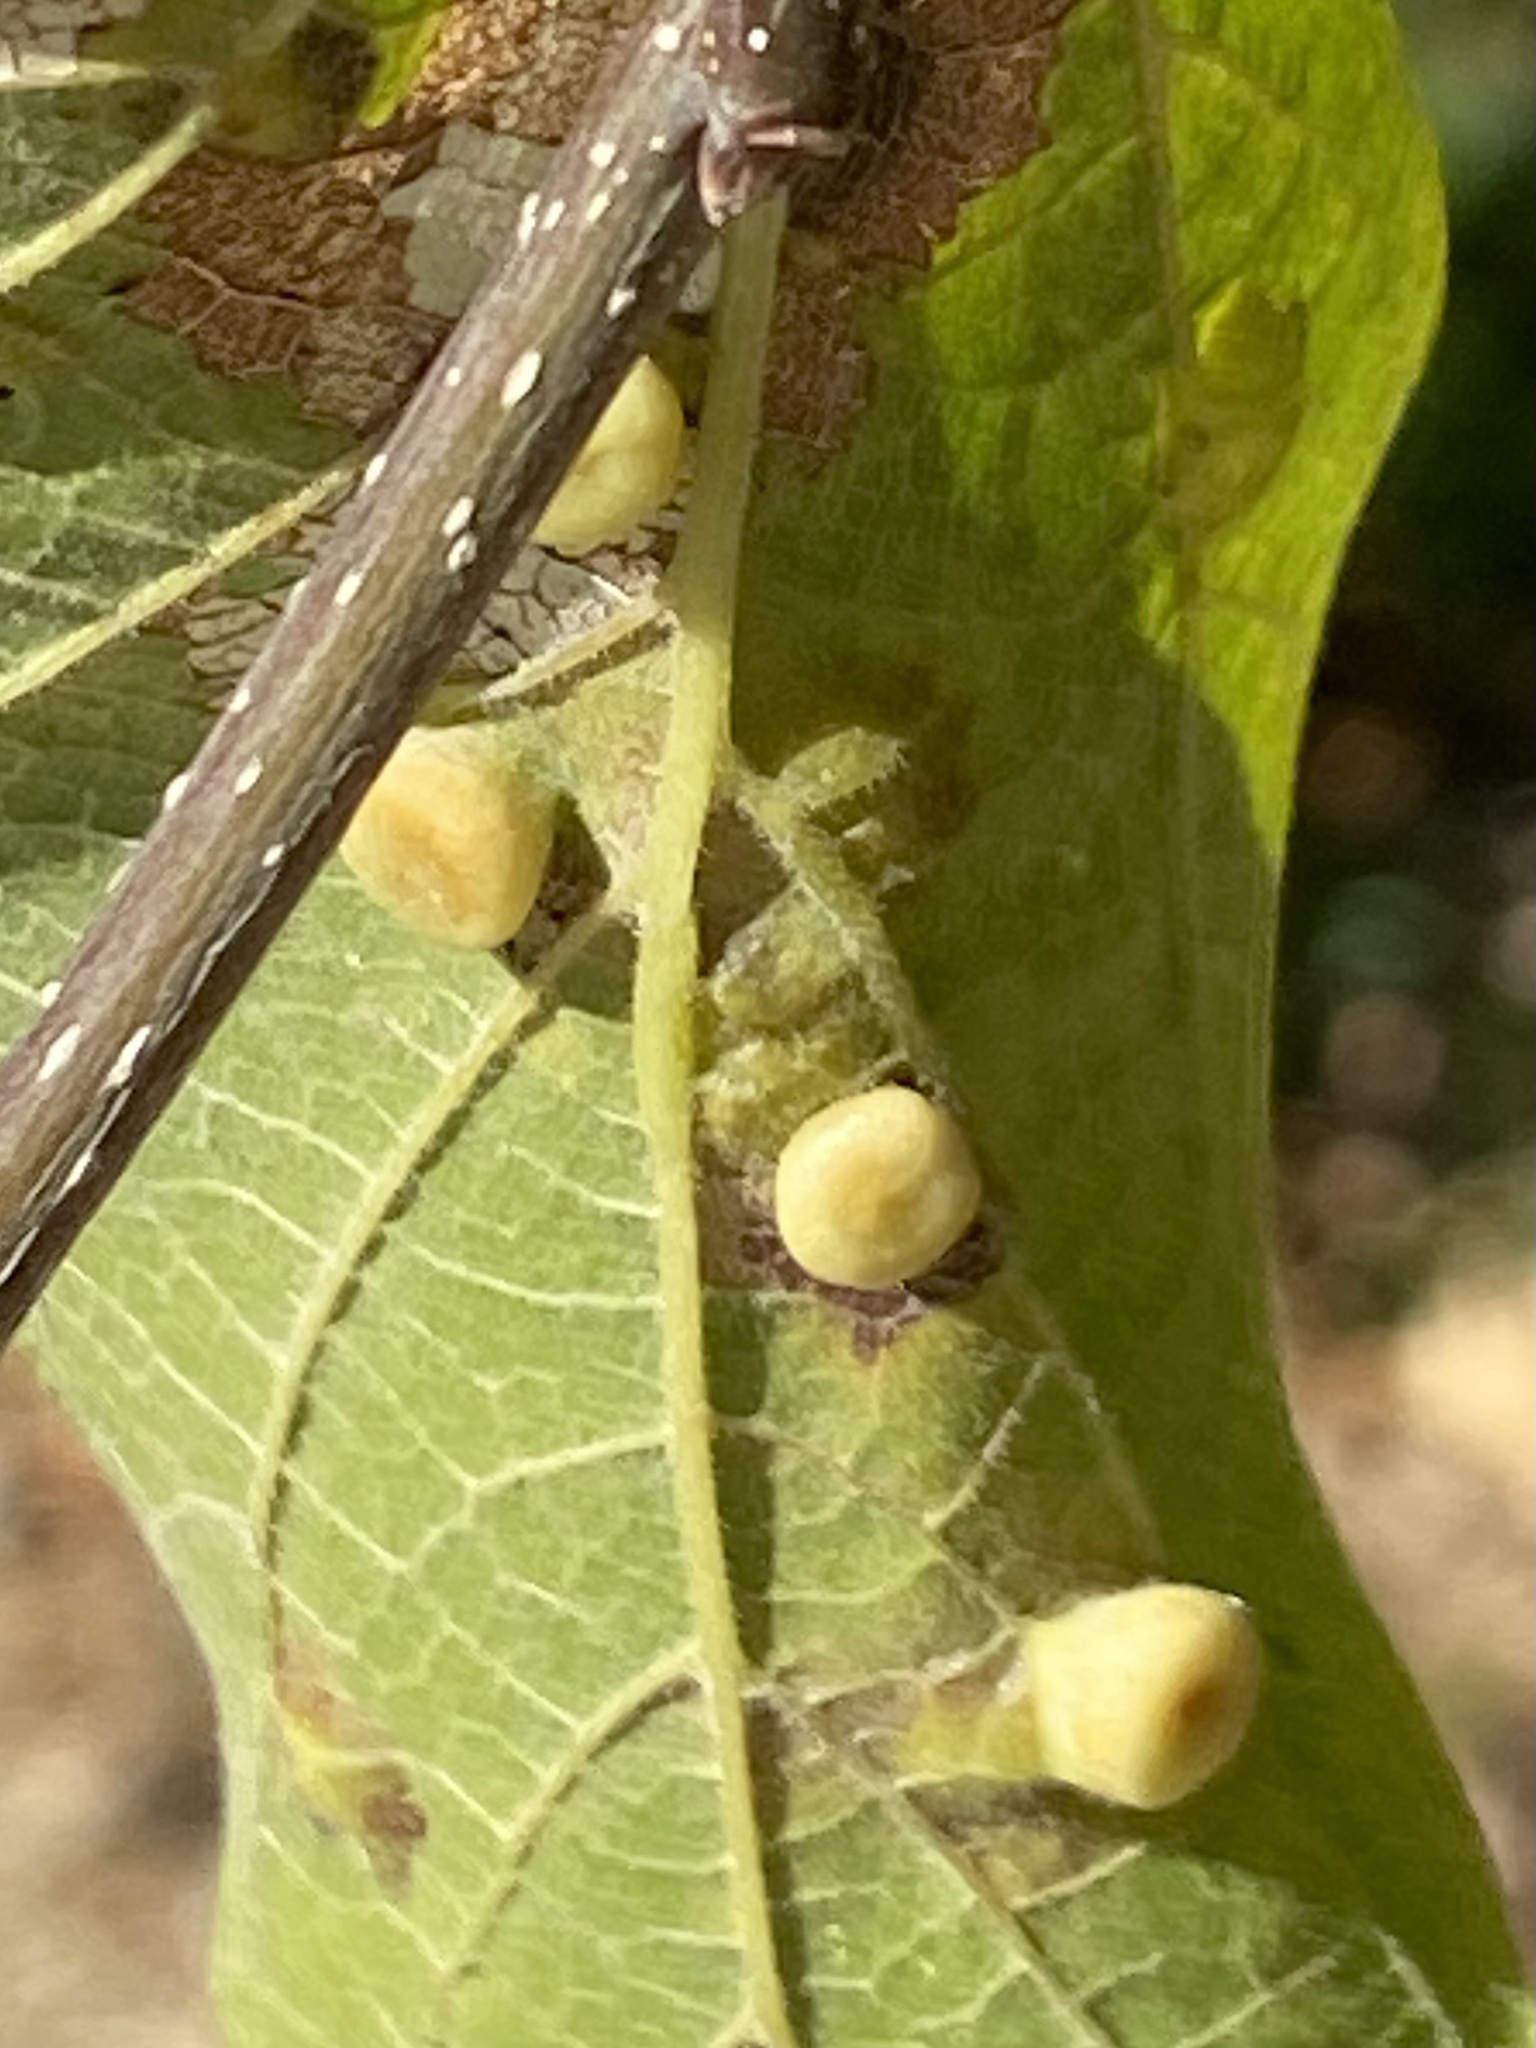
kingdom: Animalia
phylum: Arthropoda
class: Insecta
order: Hemiptera
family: Aphalaridae
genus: Pachypsylla
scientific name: Pachypsylla celtidismamma
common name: Hackberry nipplegall psyllid
